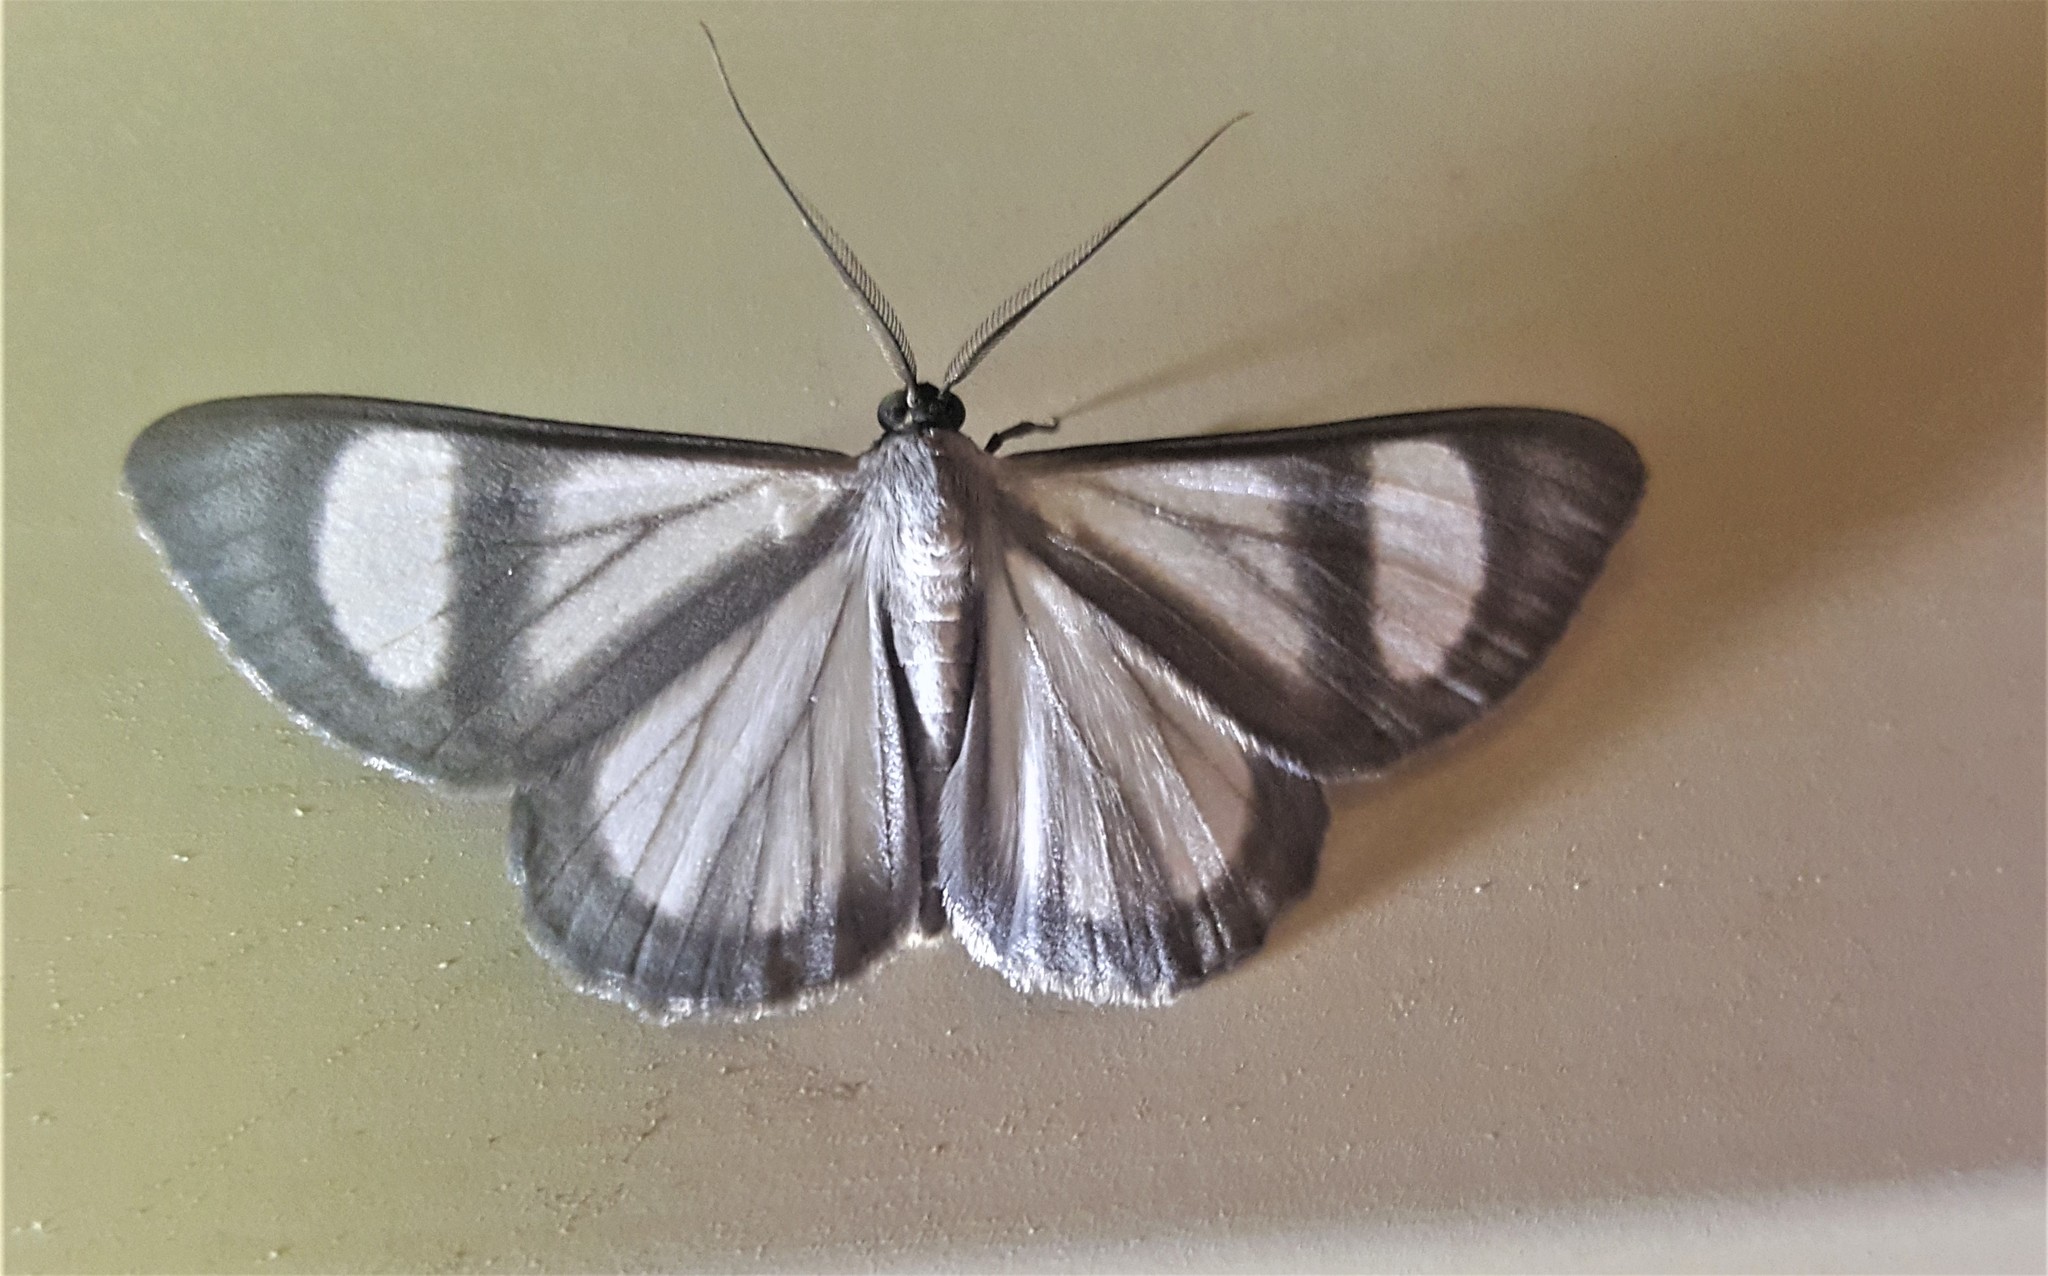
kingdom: Animalia
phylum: Arthropoda
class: Insecta
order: Lepidoptera
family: Geometridae
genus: Genussa
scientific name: Genussa famulata
